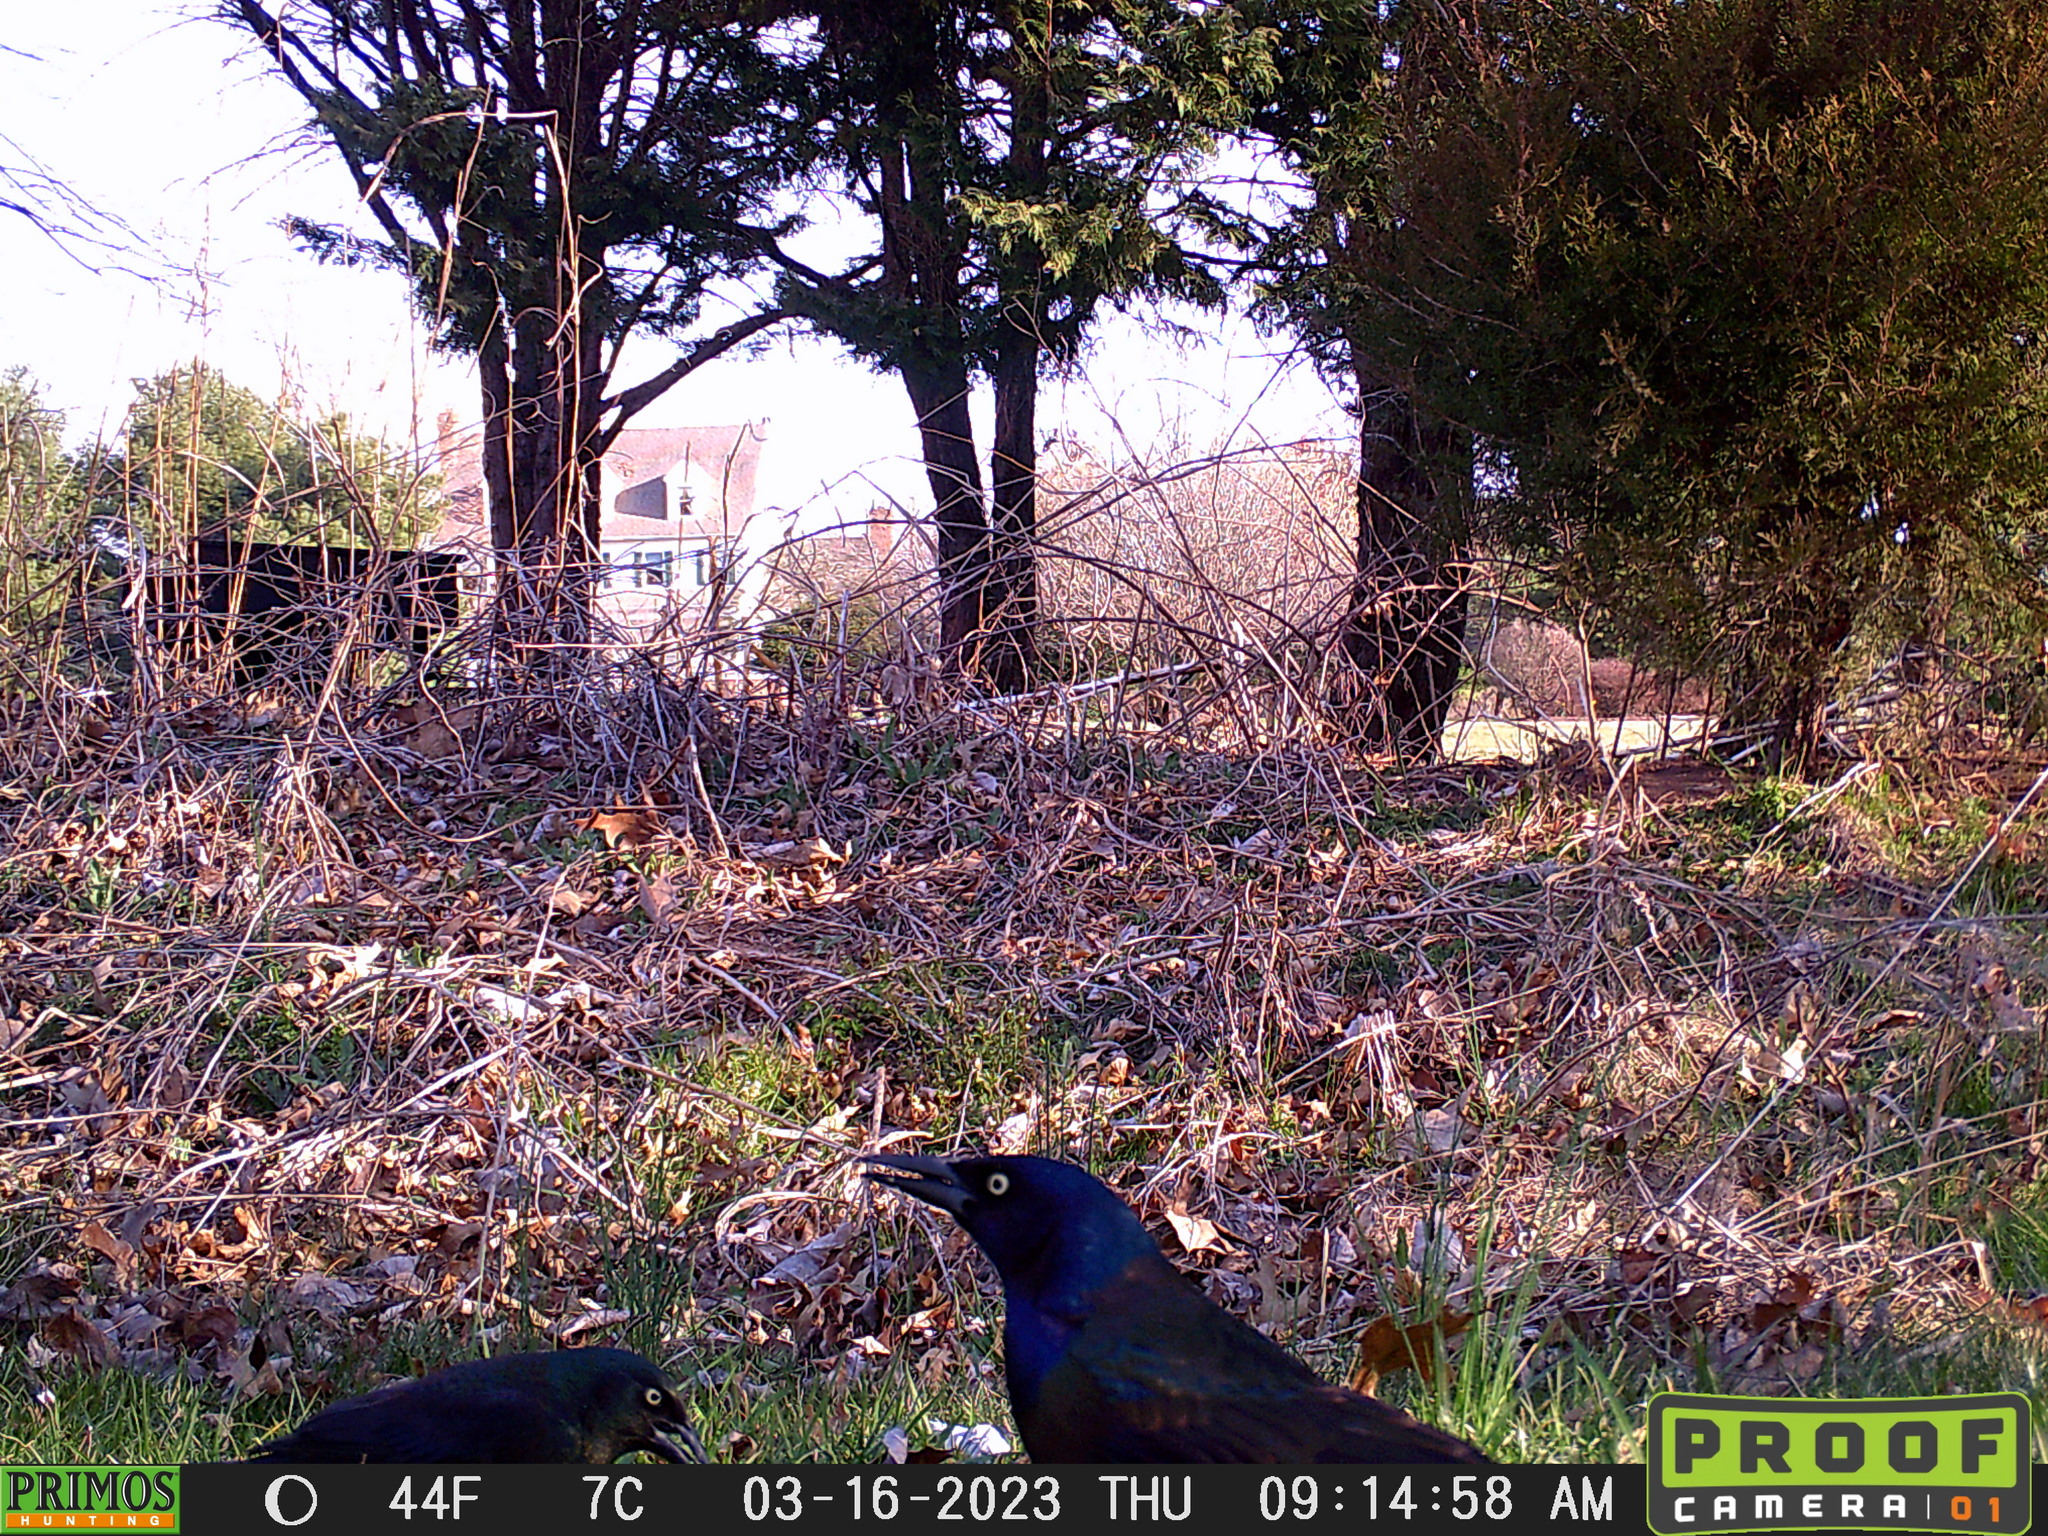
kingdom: Animalia
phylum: Chordata
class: Aves
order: Passeriformes
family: Icteridae
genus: Quiscalus
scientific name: Quiscalus quiscula
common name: Common grackle
